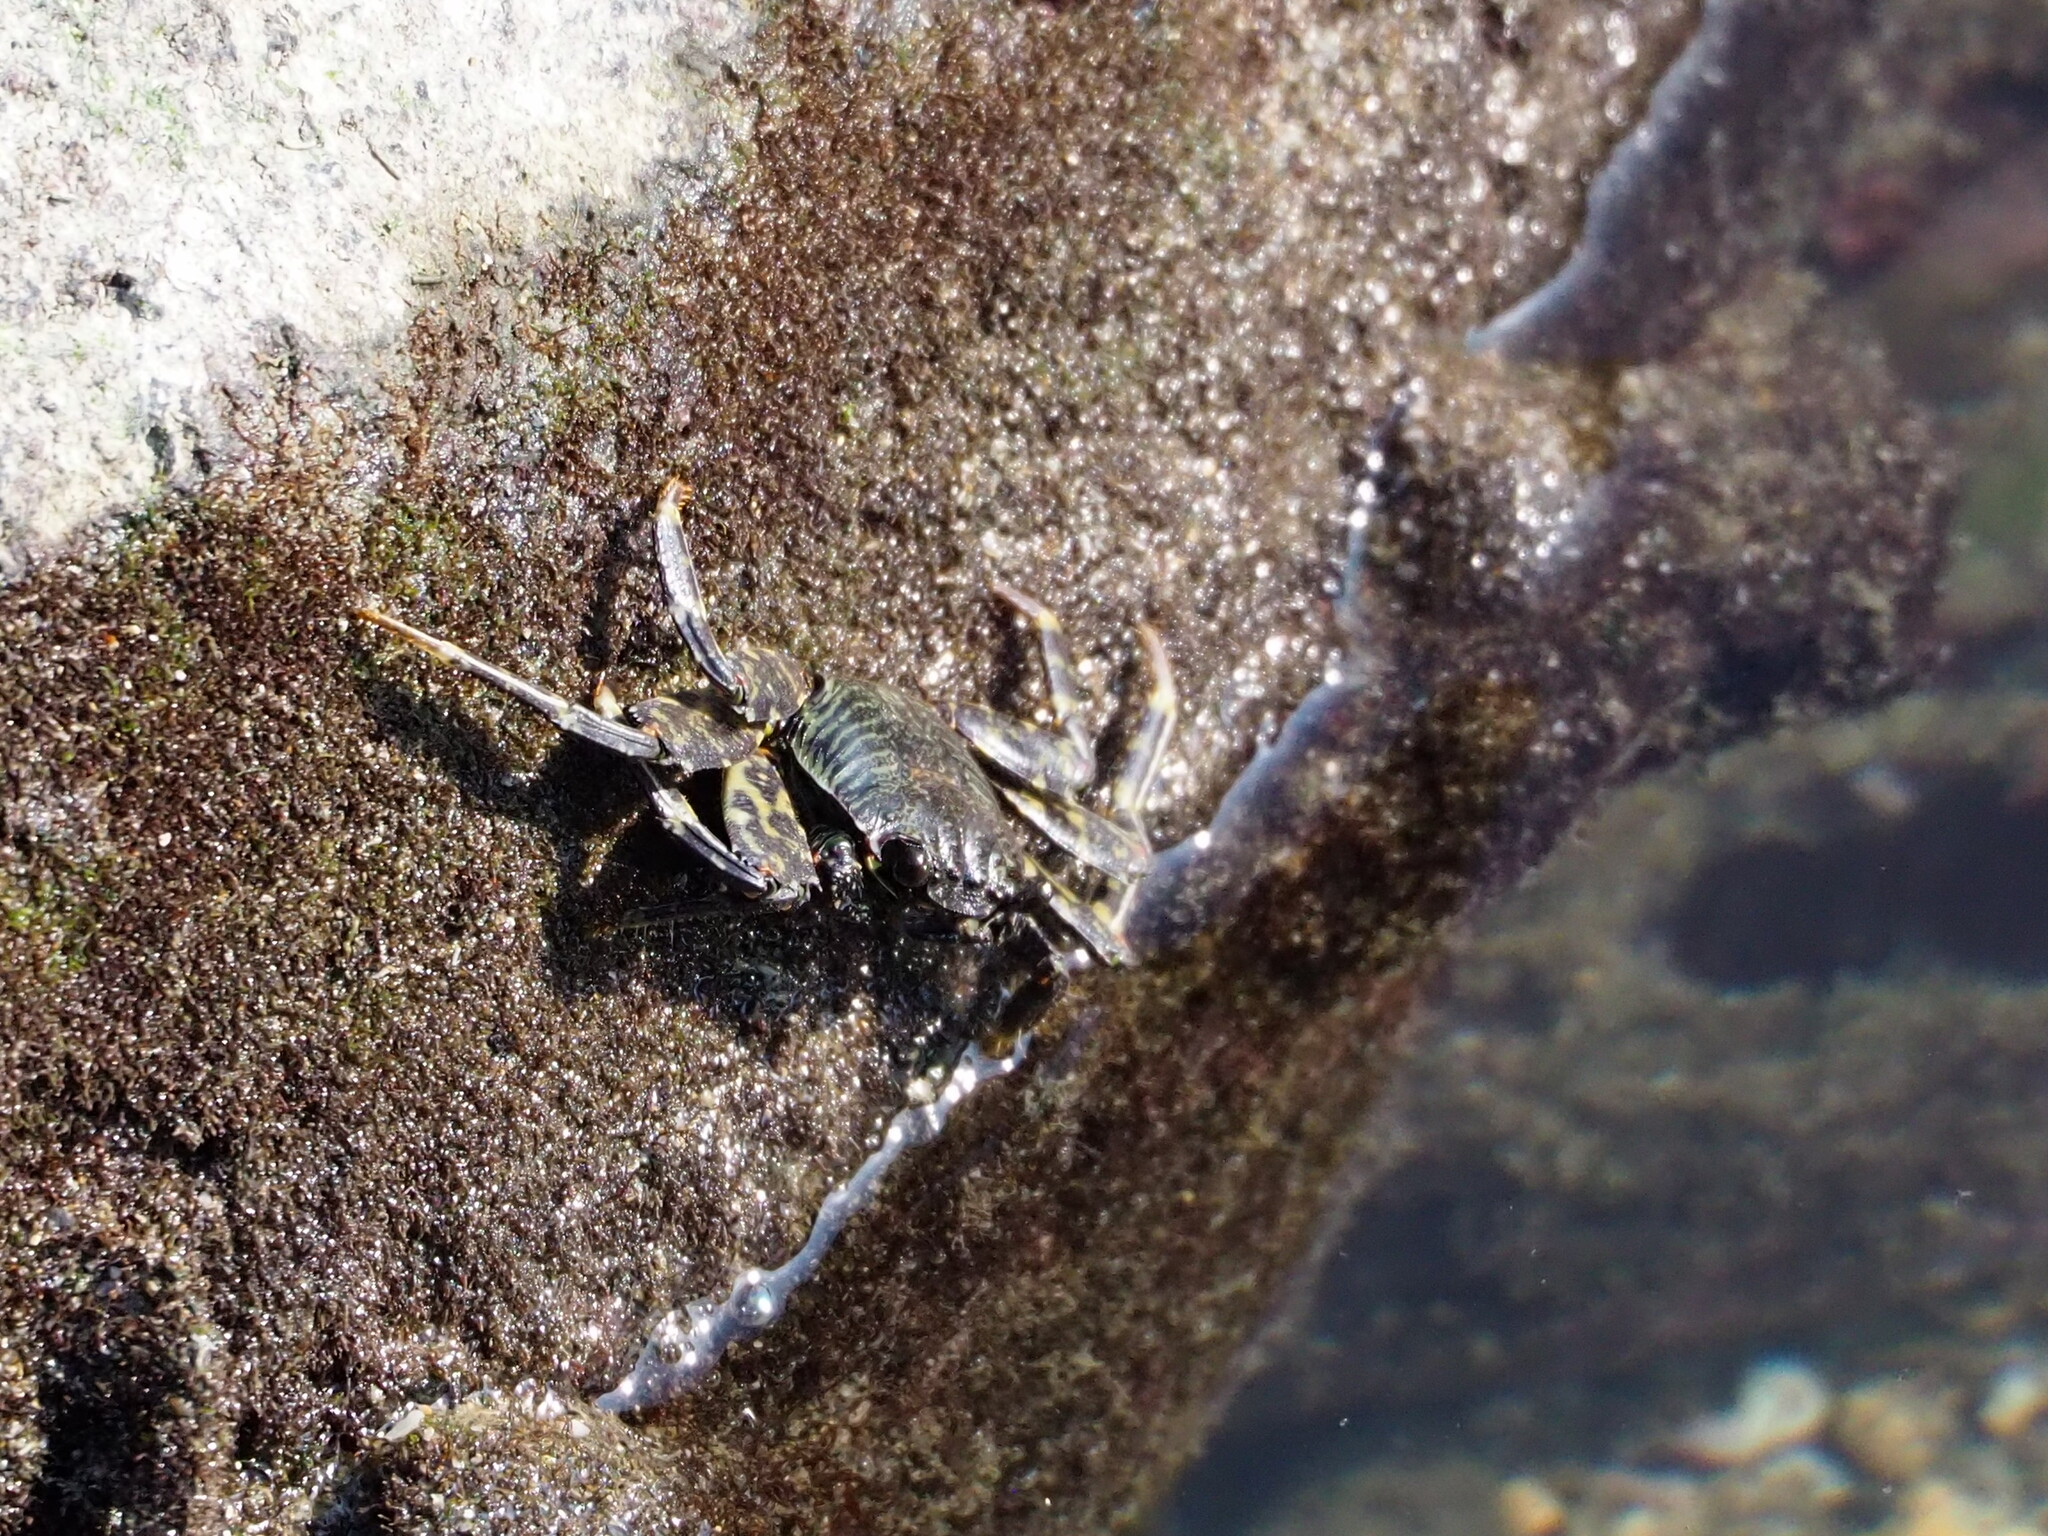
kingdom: Animalia
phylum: Arthropoda
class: Malacostraca
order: Decapoda
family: Grapsidae
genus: Grapsus
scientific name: Grapsus albolineatus
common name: Mottled lightfoot crab
